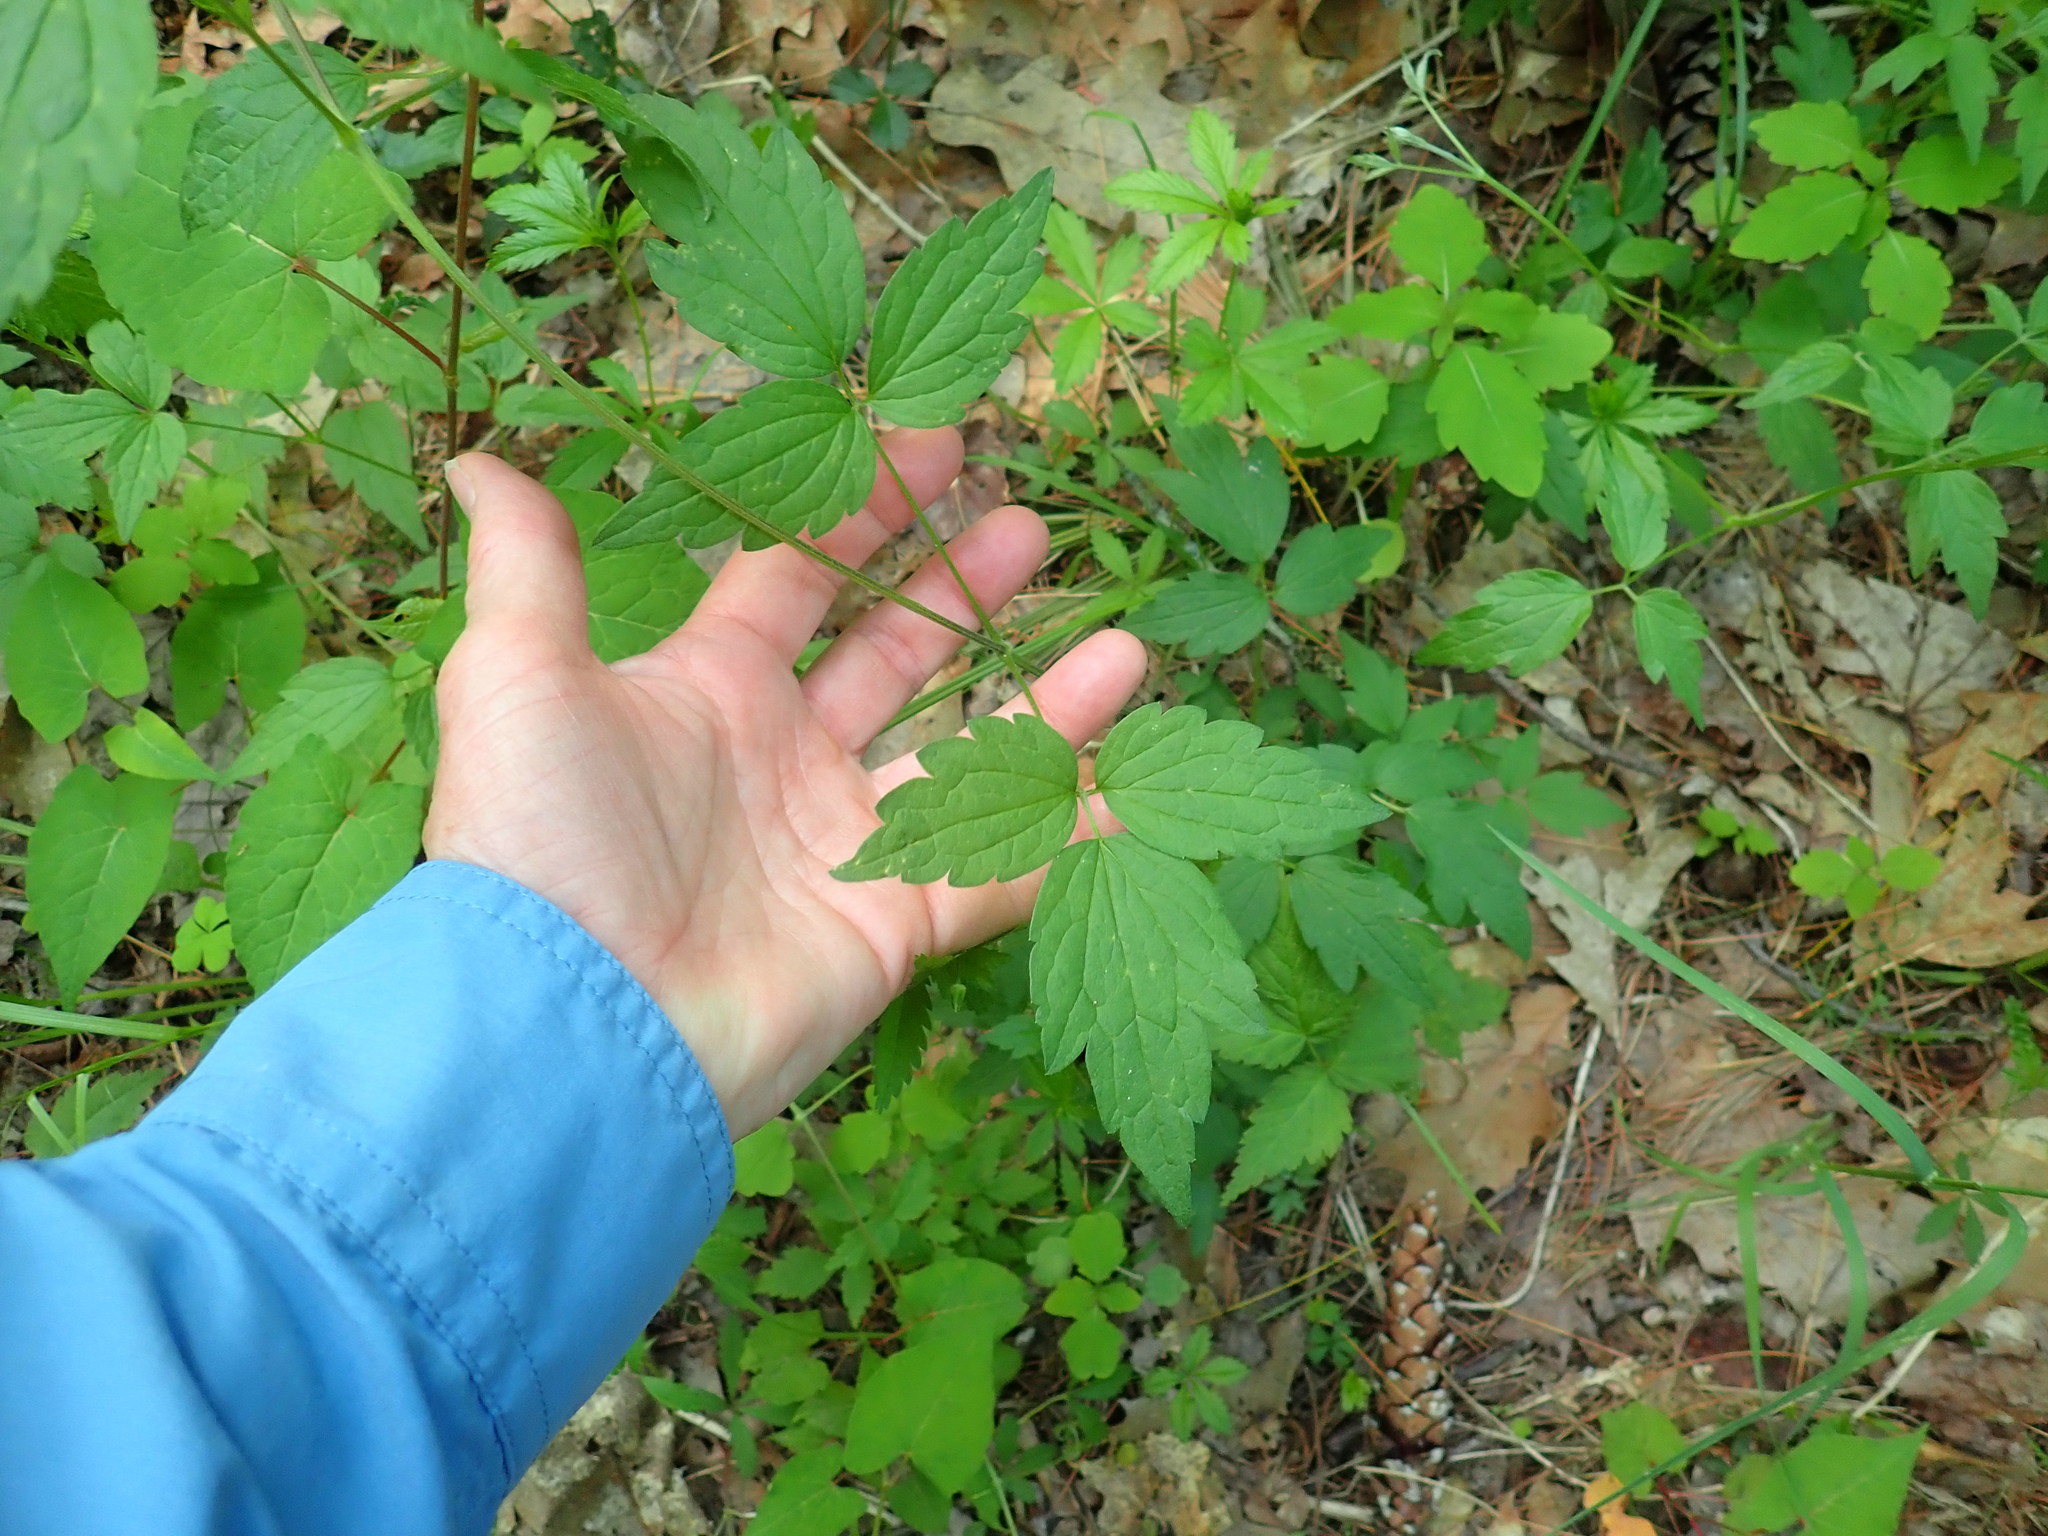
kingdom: Plantae
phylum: Tracheophyta
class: Magnoliopsida
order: Ranunculales
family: Ranunculaceae
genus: Clematis
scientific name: Clematis virginiana
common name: Virgin's-bower
